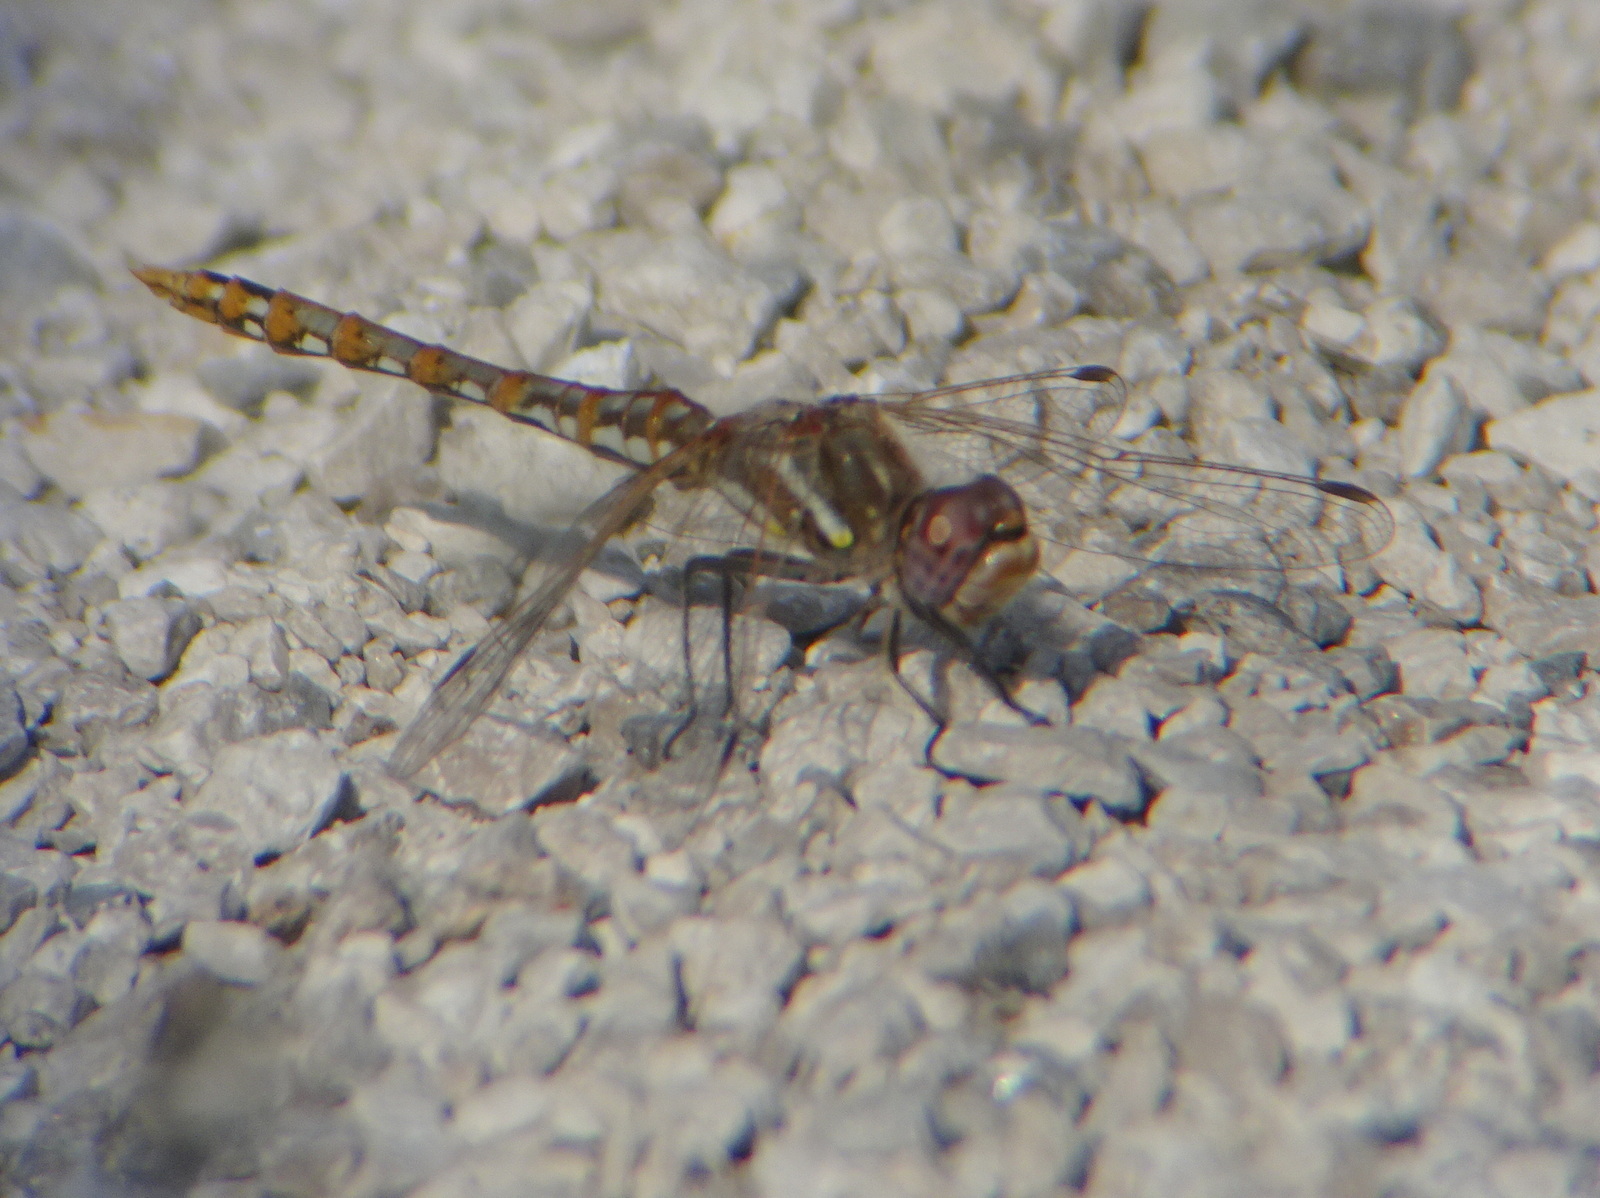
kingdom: Animalia
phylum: Arthropoda
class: Insecta
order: Odonata
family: Libellulidae
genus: Sympetrum
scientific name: Sympetrum corruptum
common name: Variegated meadowhawk
